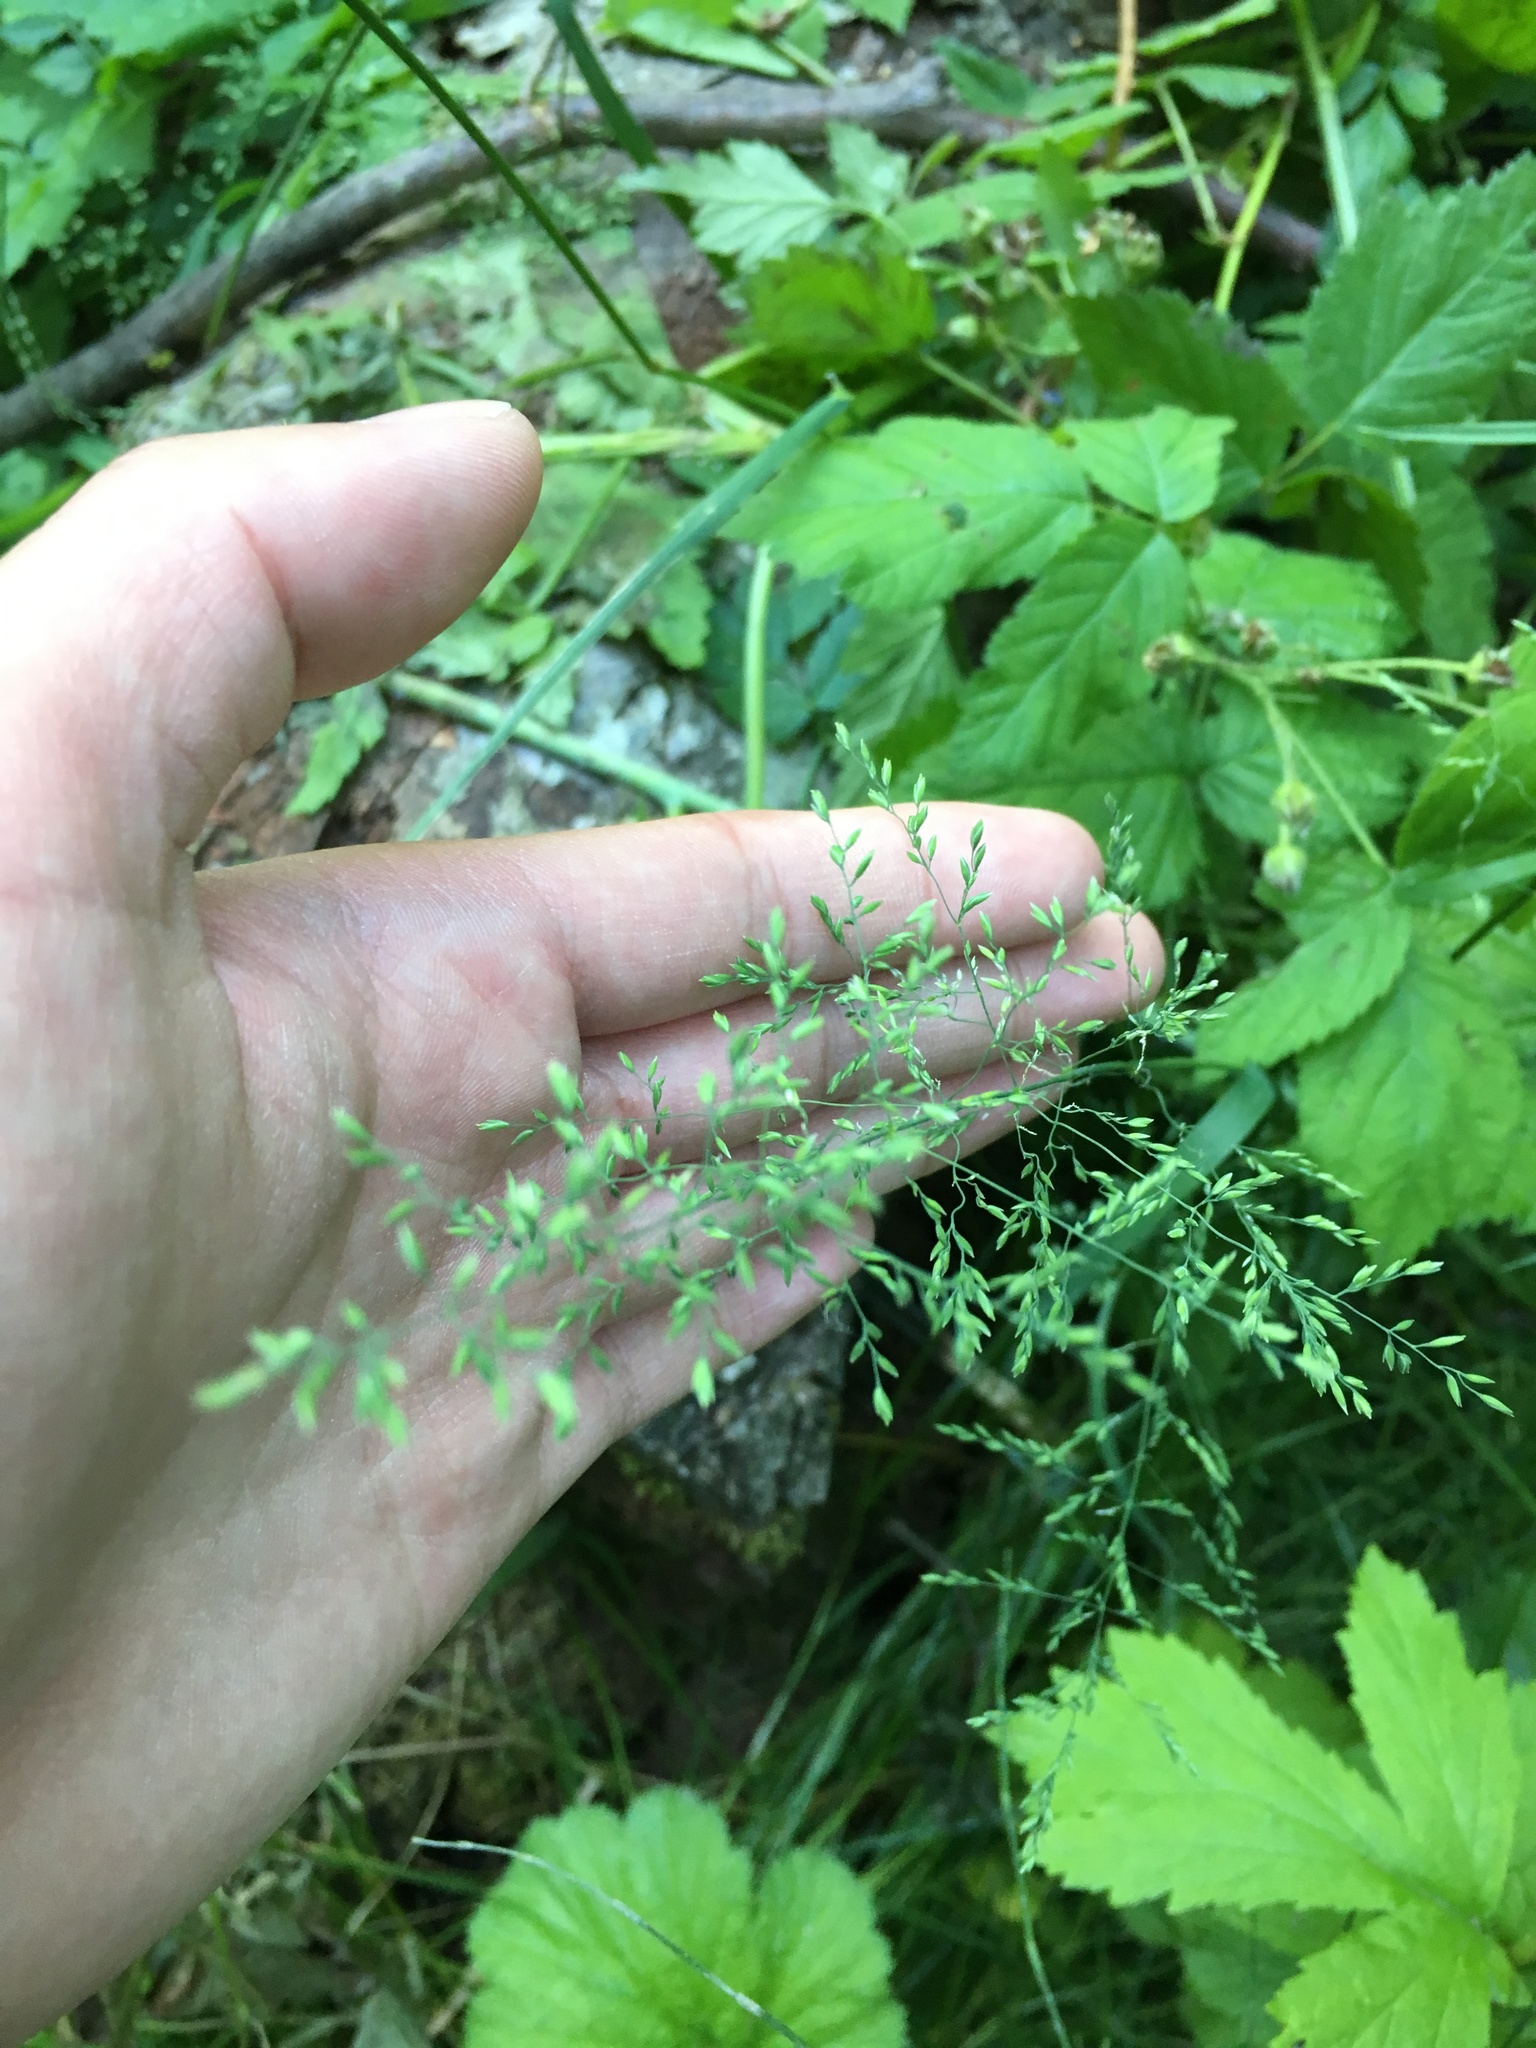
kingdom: Plantae
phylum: Tracheophyta
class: Liliopsida
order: Poales
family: Poaceae
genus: Poa
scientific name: Poa pratensis
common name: Kentucky bluegrass
